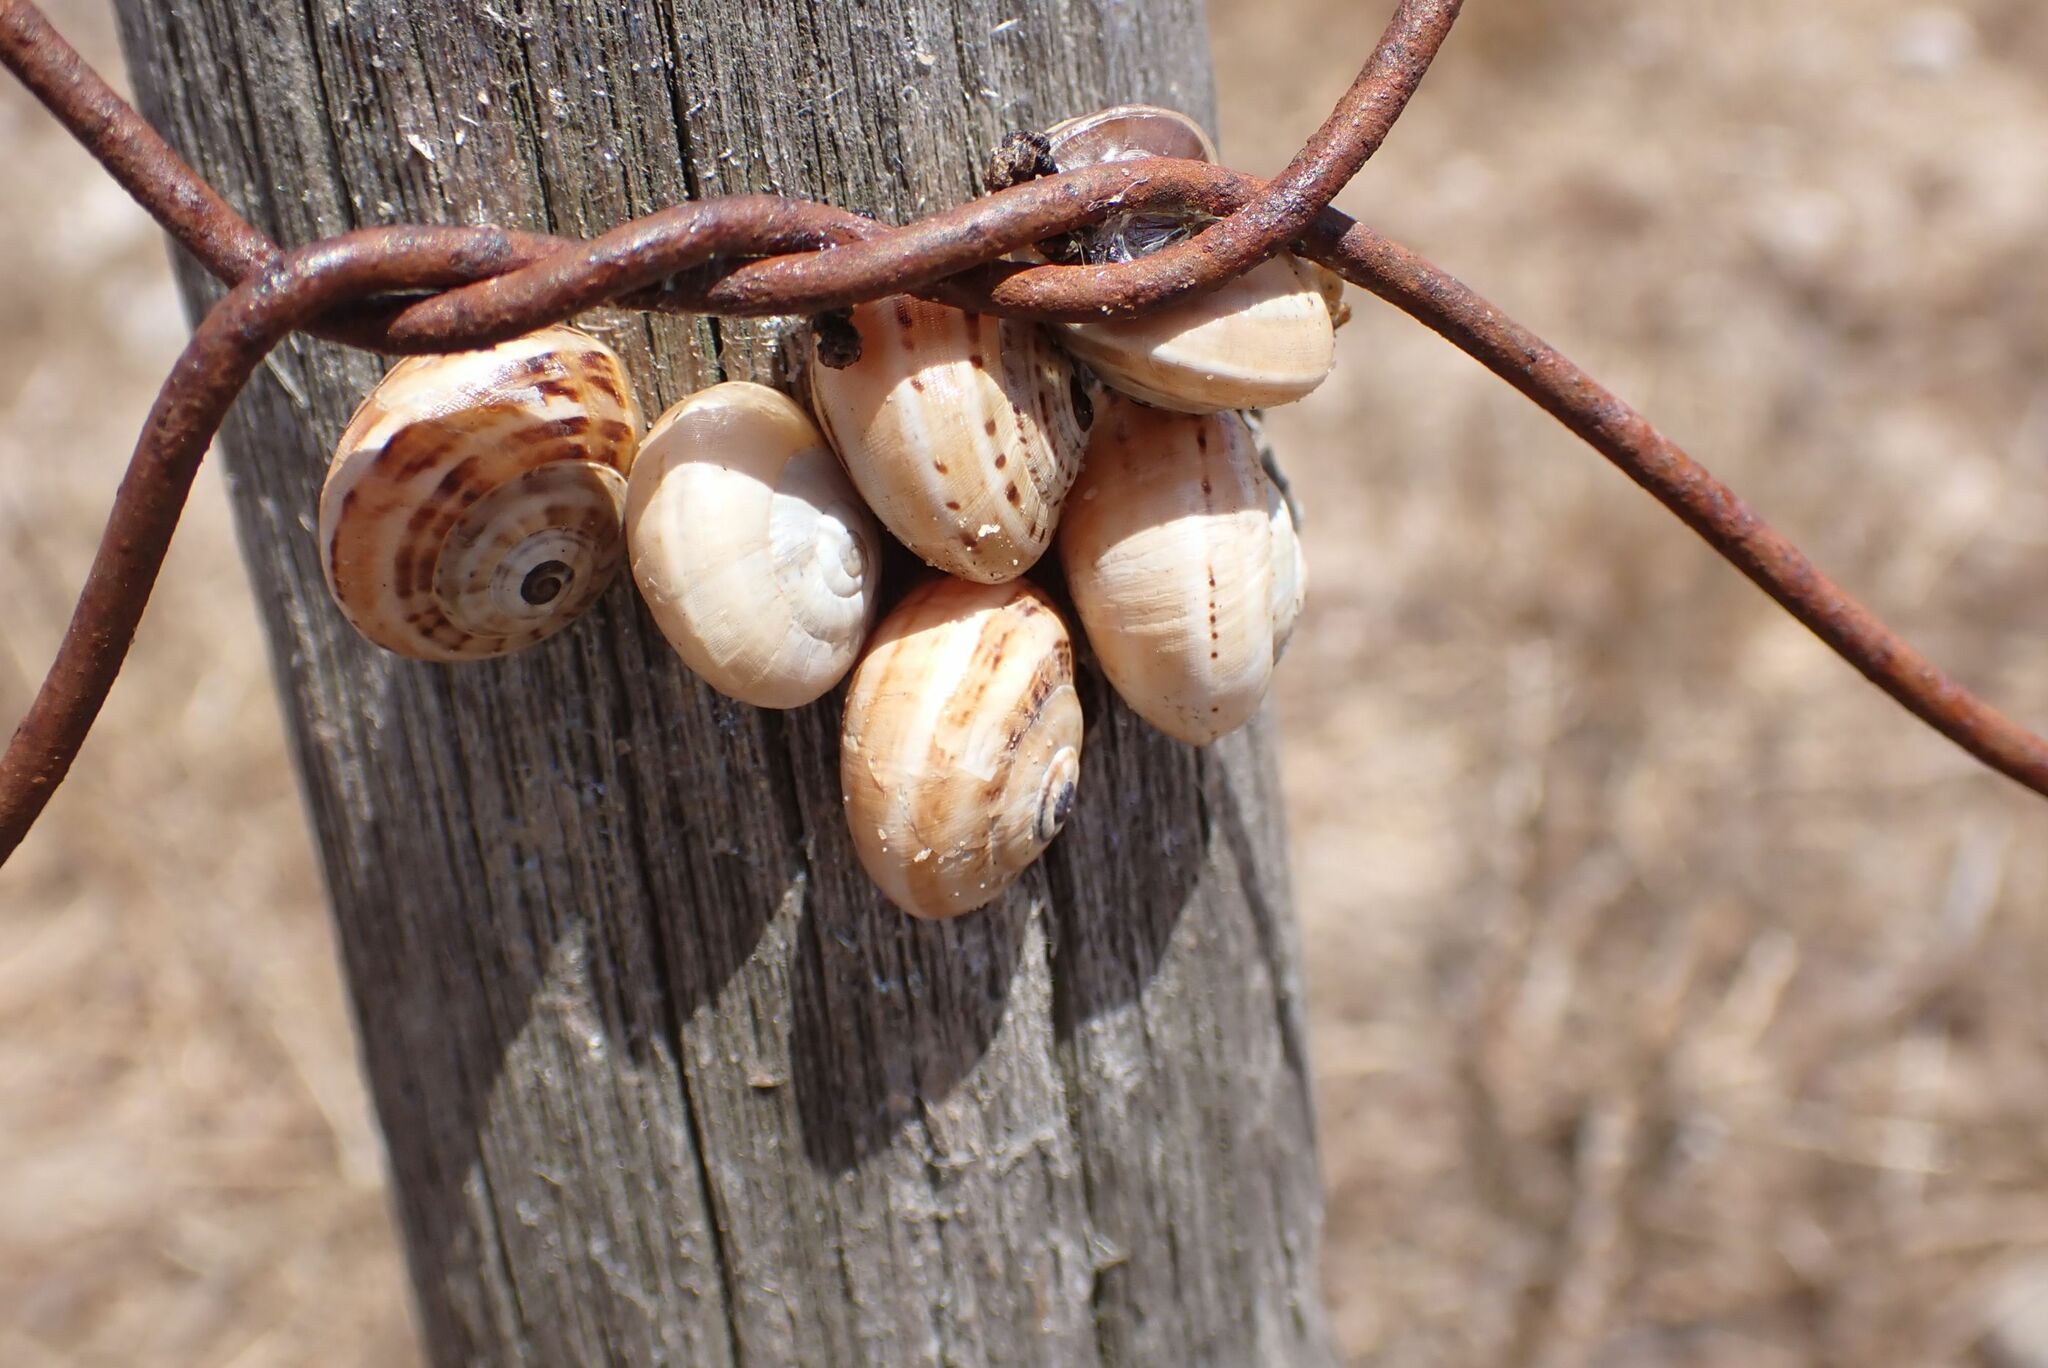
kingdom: Animalia
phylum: Mollusca
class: Gastropoda
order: Stylommatophora
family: Helicidae
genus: Theba
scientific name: Theba pisana
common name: White snail
